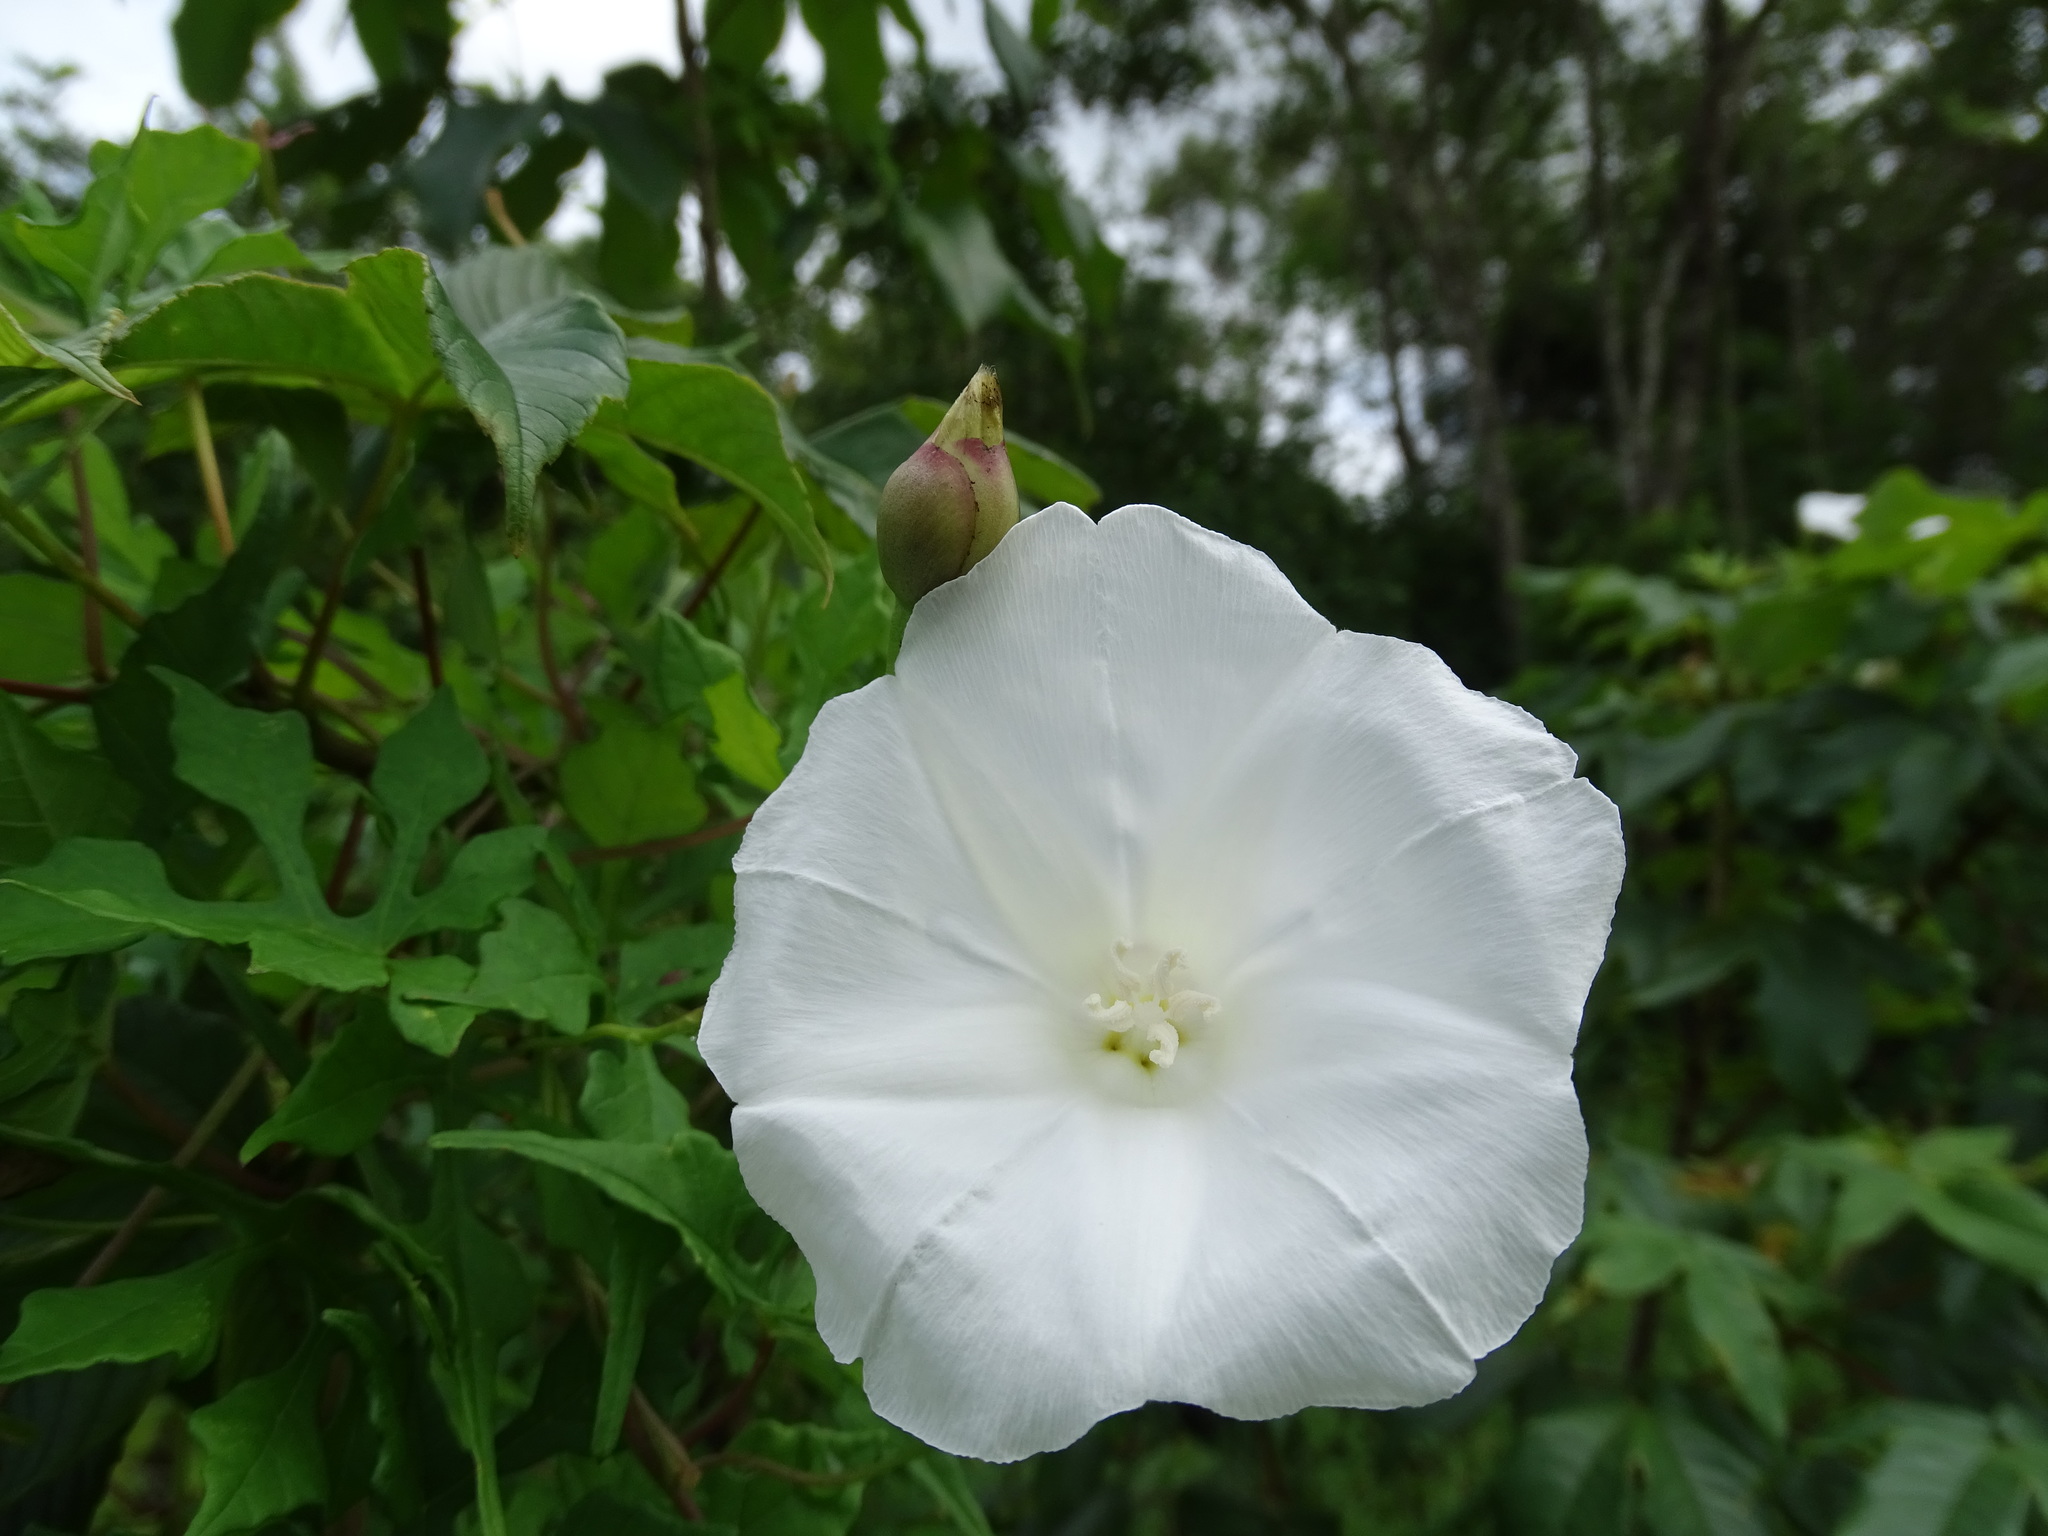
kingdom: Plantae
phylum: Tracheophyta
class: Magnoliopsida
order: Solanales
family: Convolvulaceae
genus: Operculina
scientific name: Operculina pinnatifida
